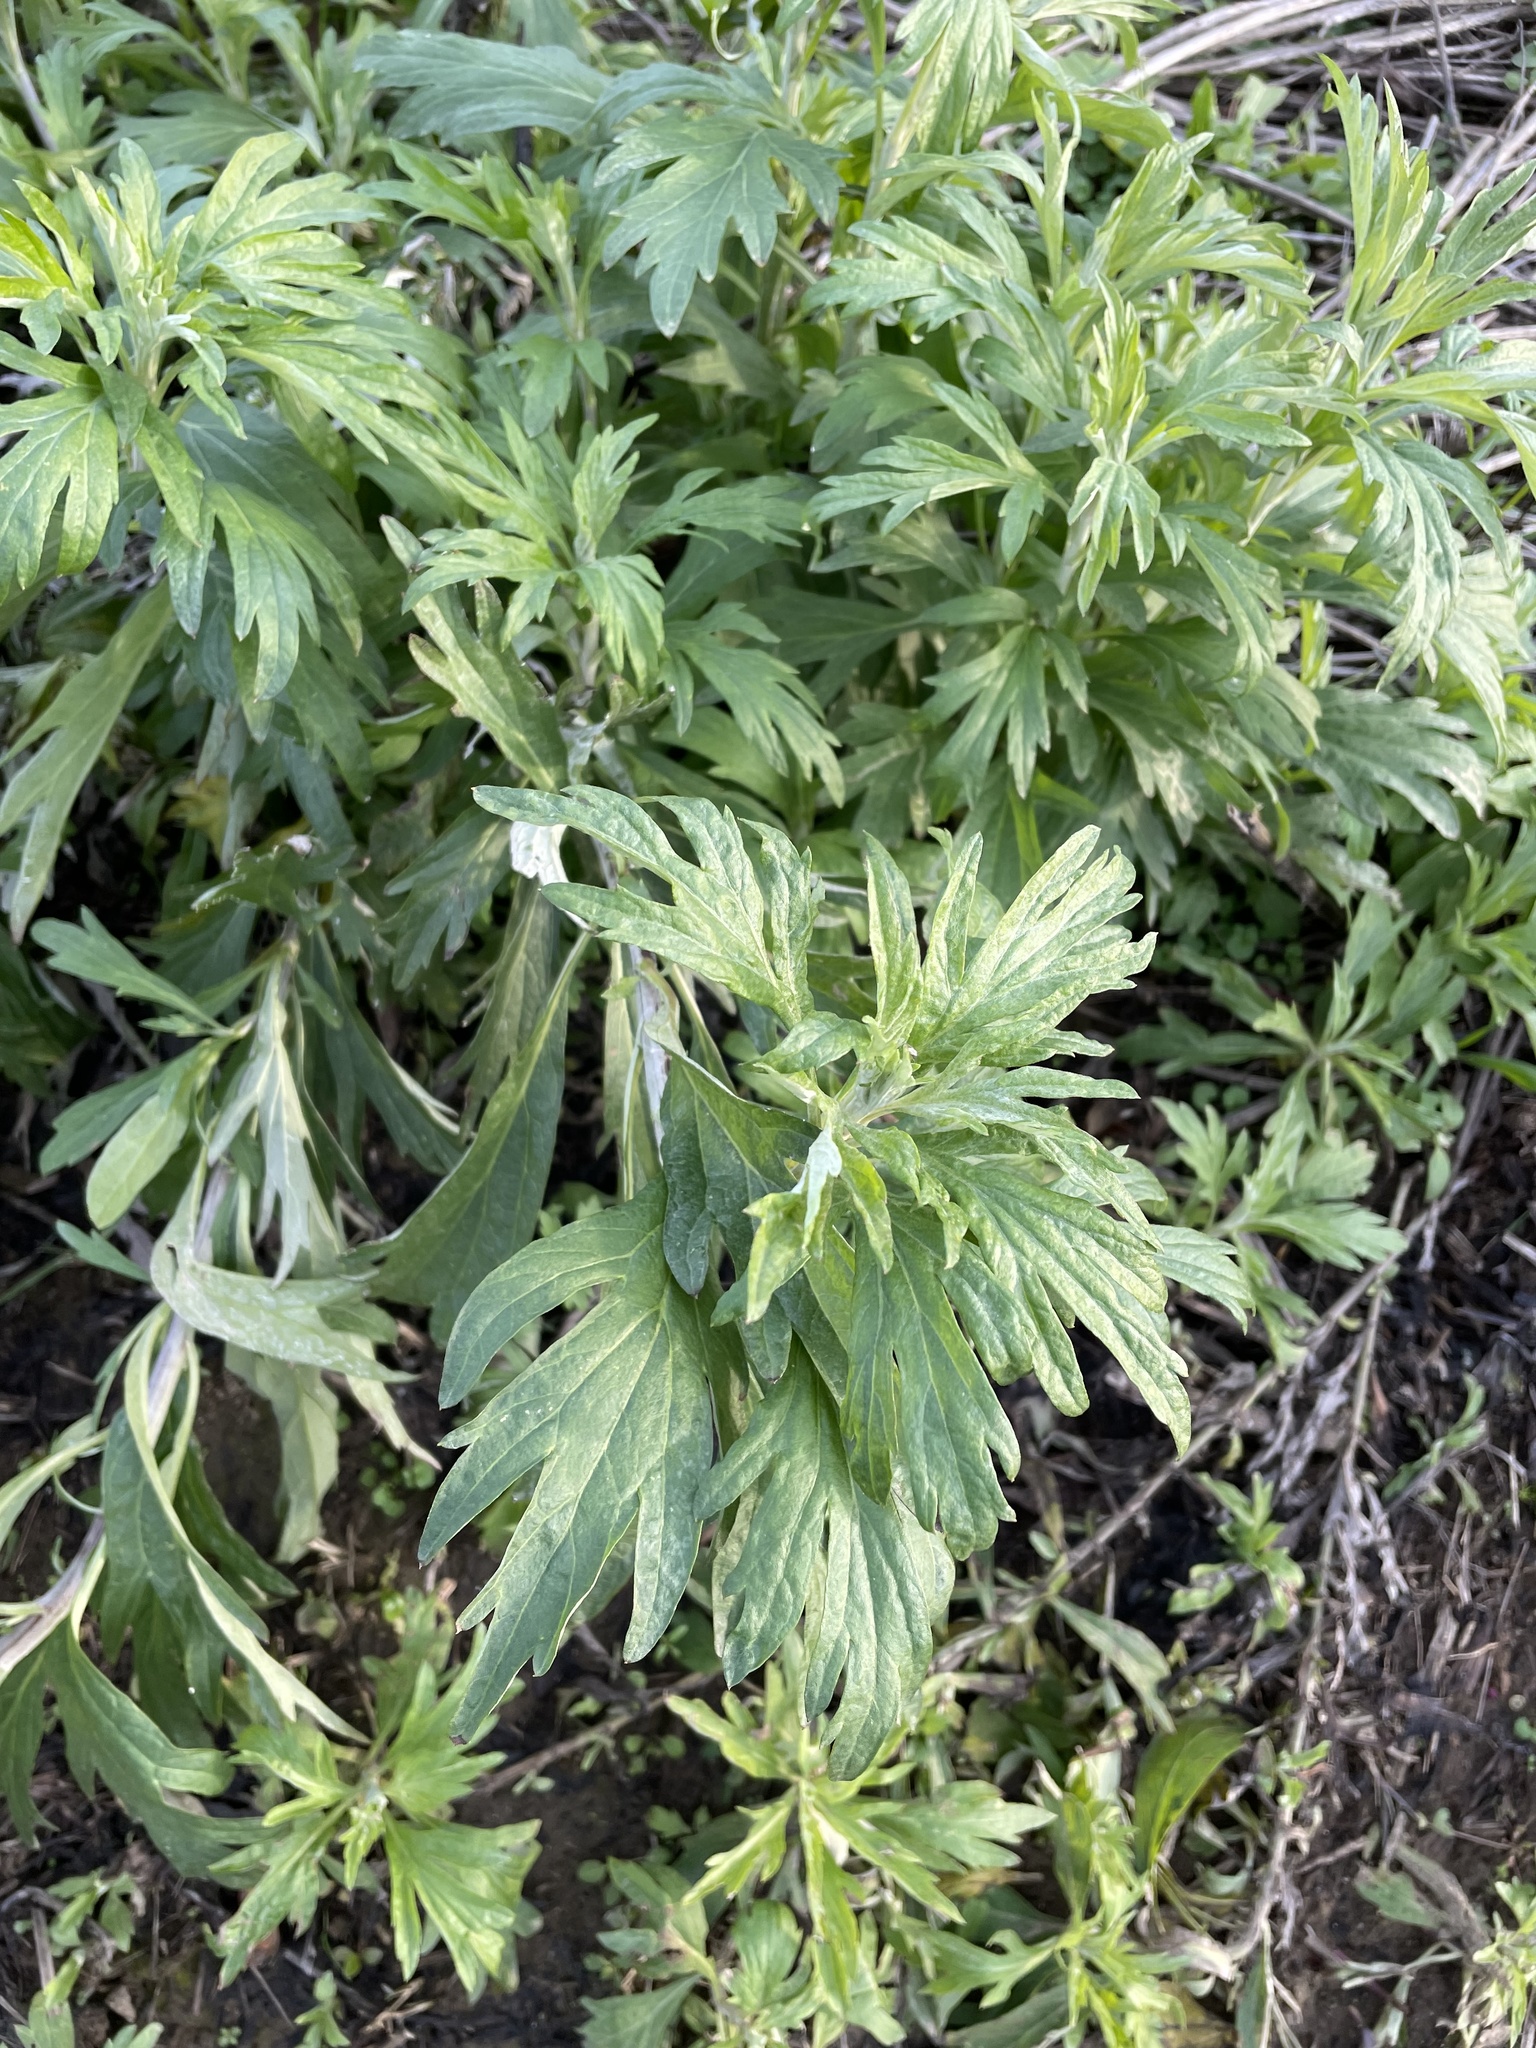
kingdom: Plantae
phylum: Tracheophyta
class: Magnoliopsida
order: Asterales
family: Asteraceae
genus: Artemisia
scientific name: Artemisia douglasiana
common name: Northwest mugwort
